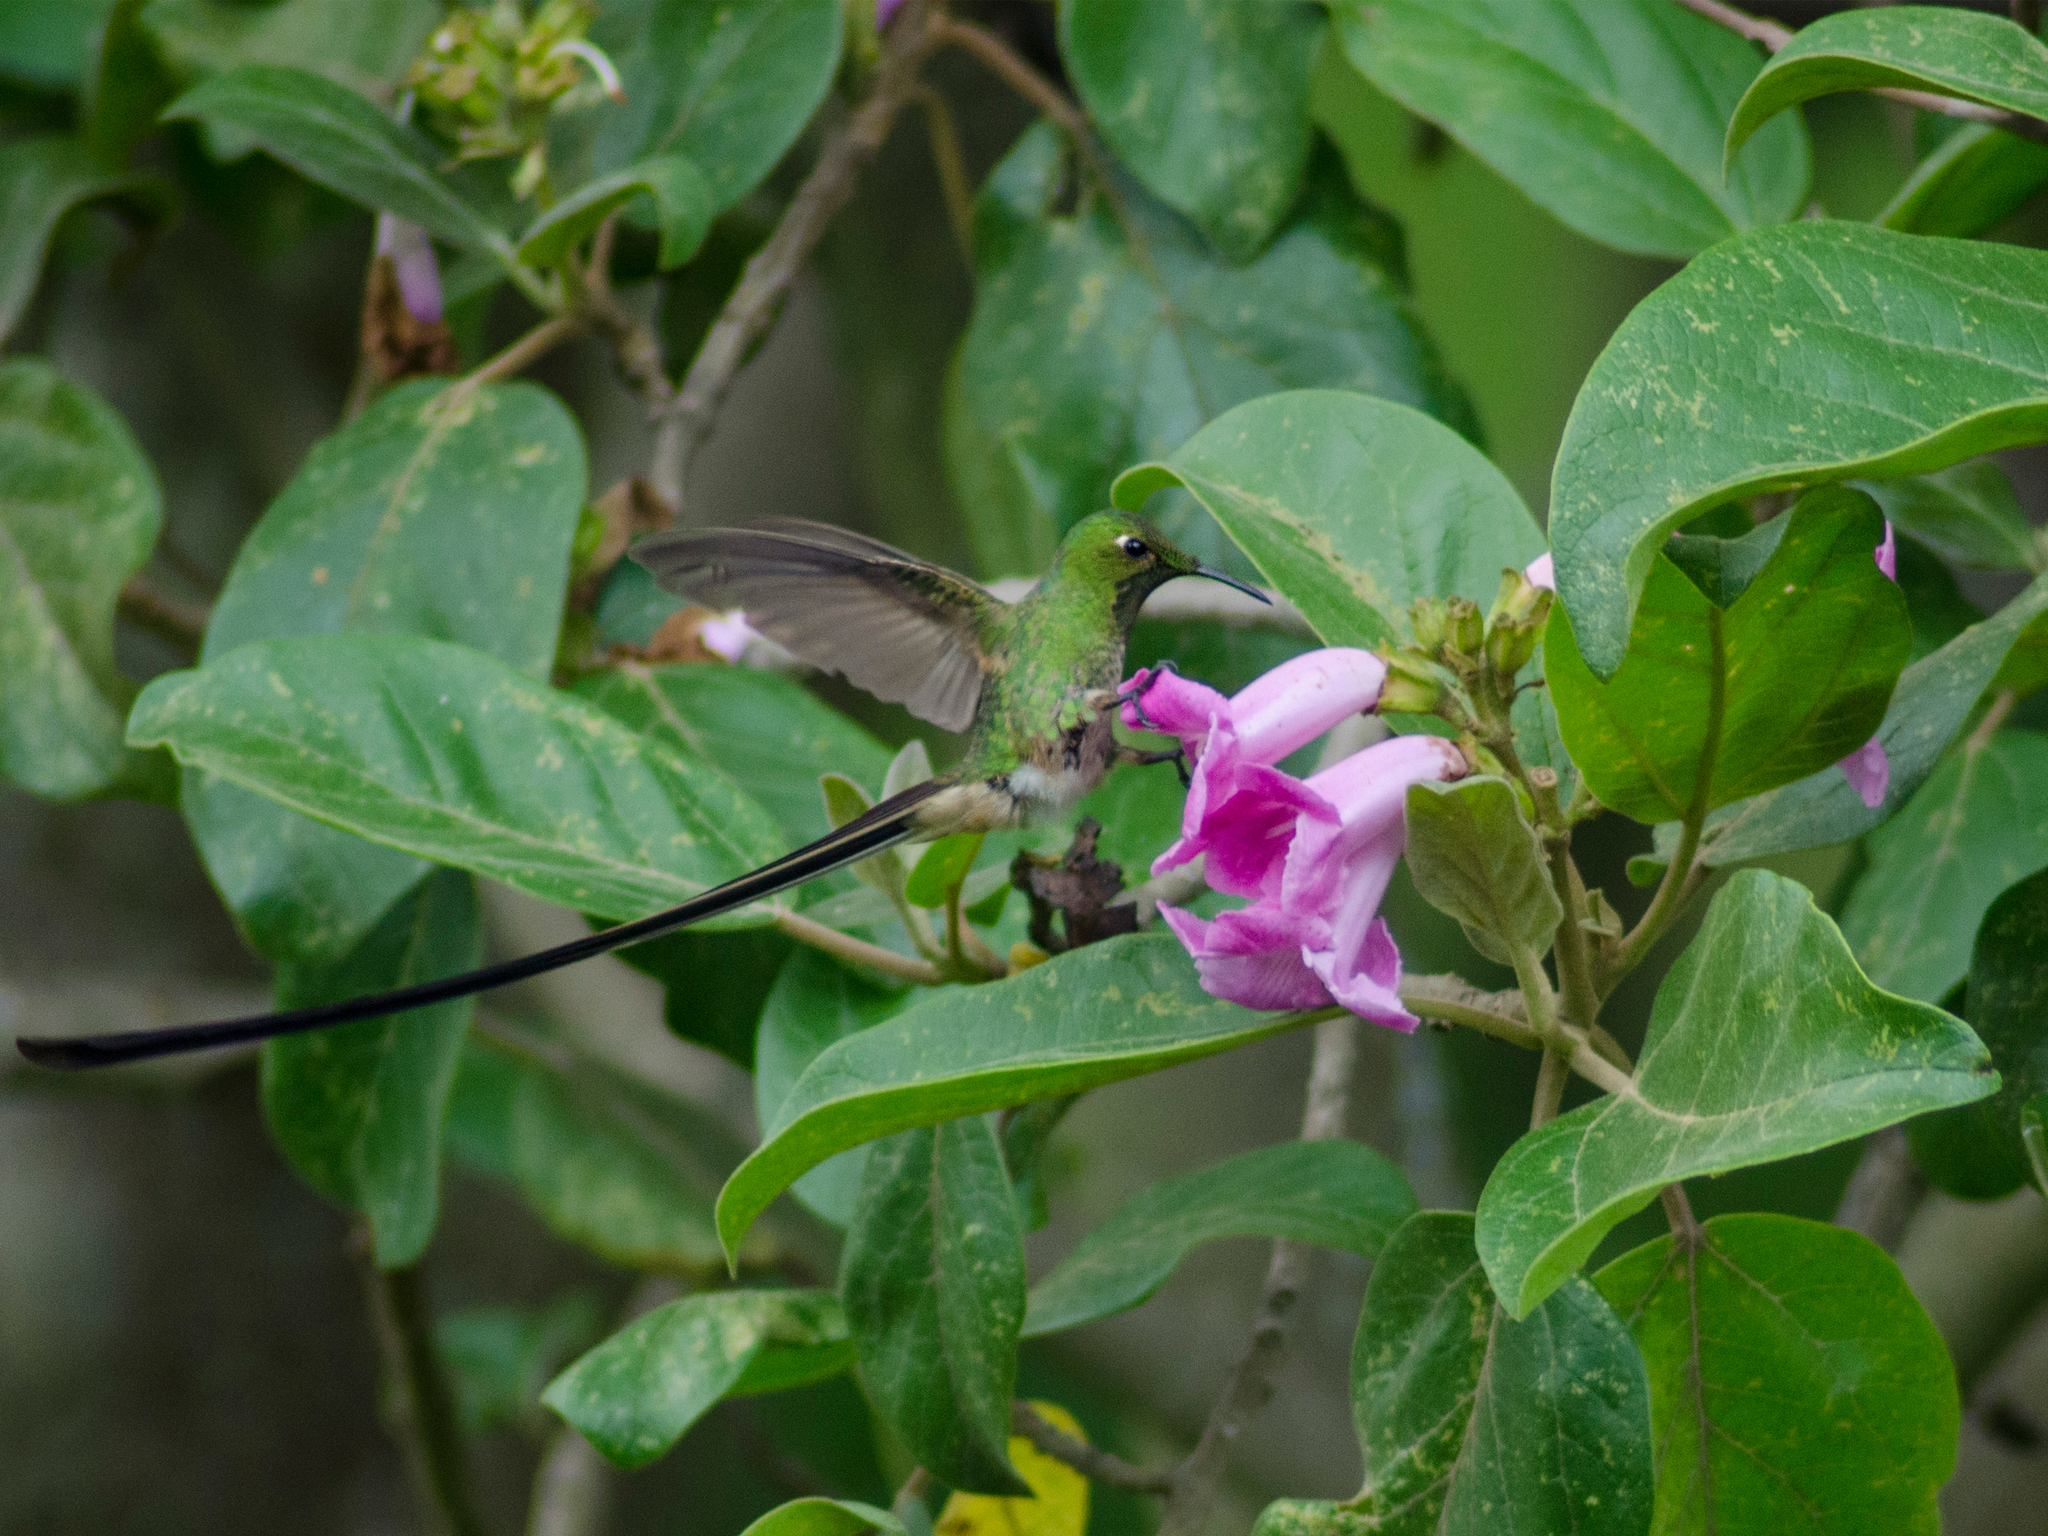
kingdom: Animalia
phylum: Chordata
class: Aves
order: Apodiformes
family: Trochilidae
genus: Lesbia
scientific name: Lesbia victoriae
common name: Black-tailed trainbearer
